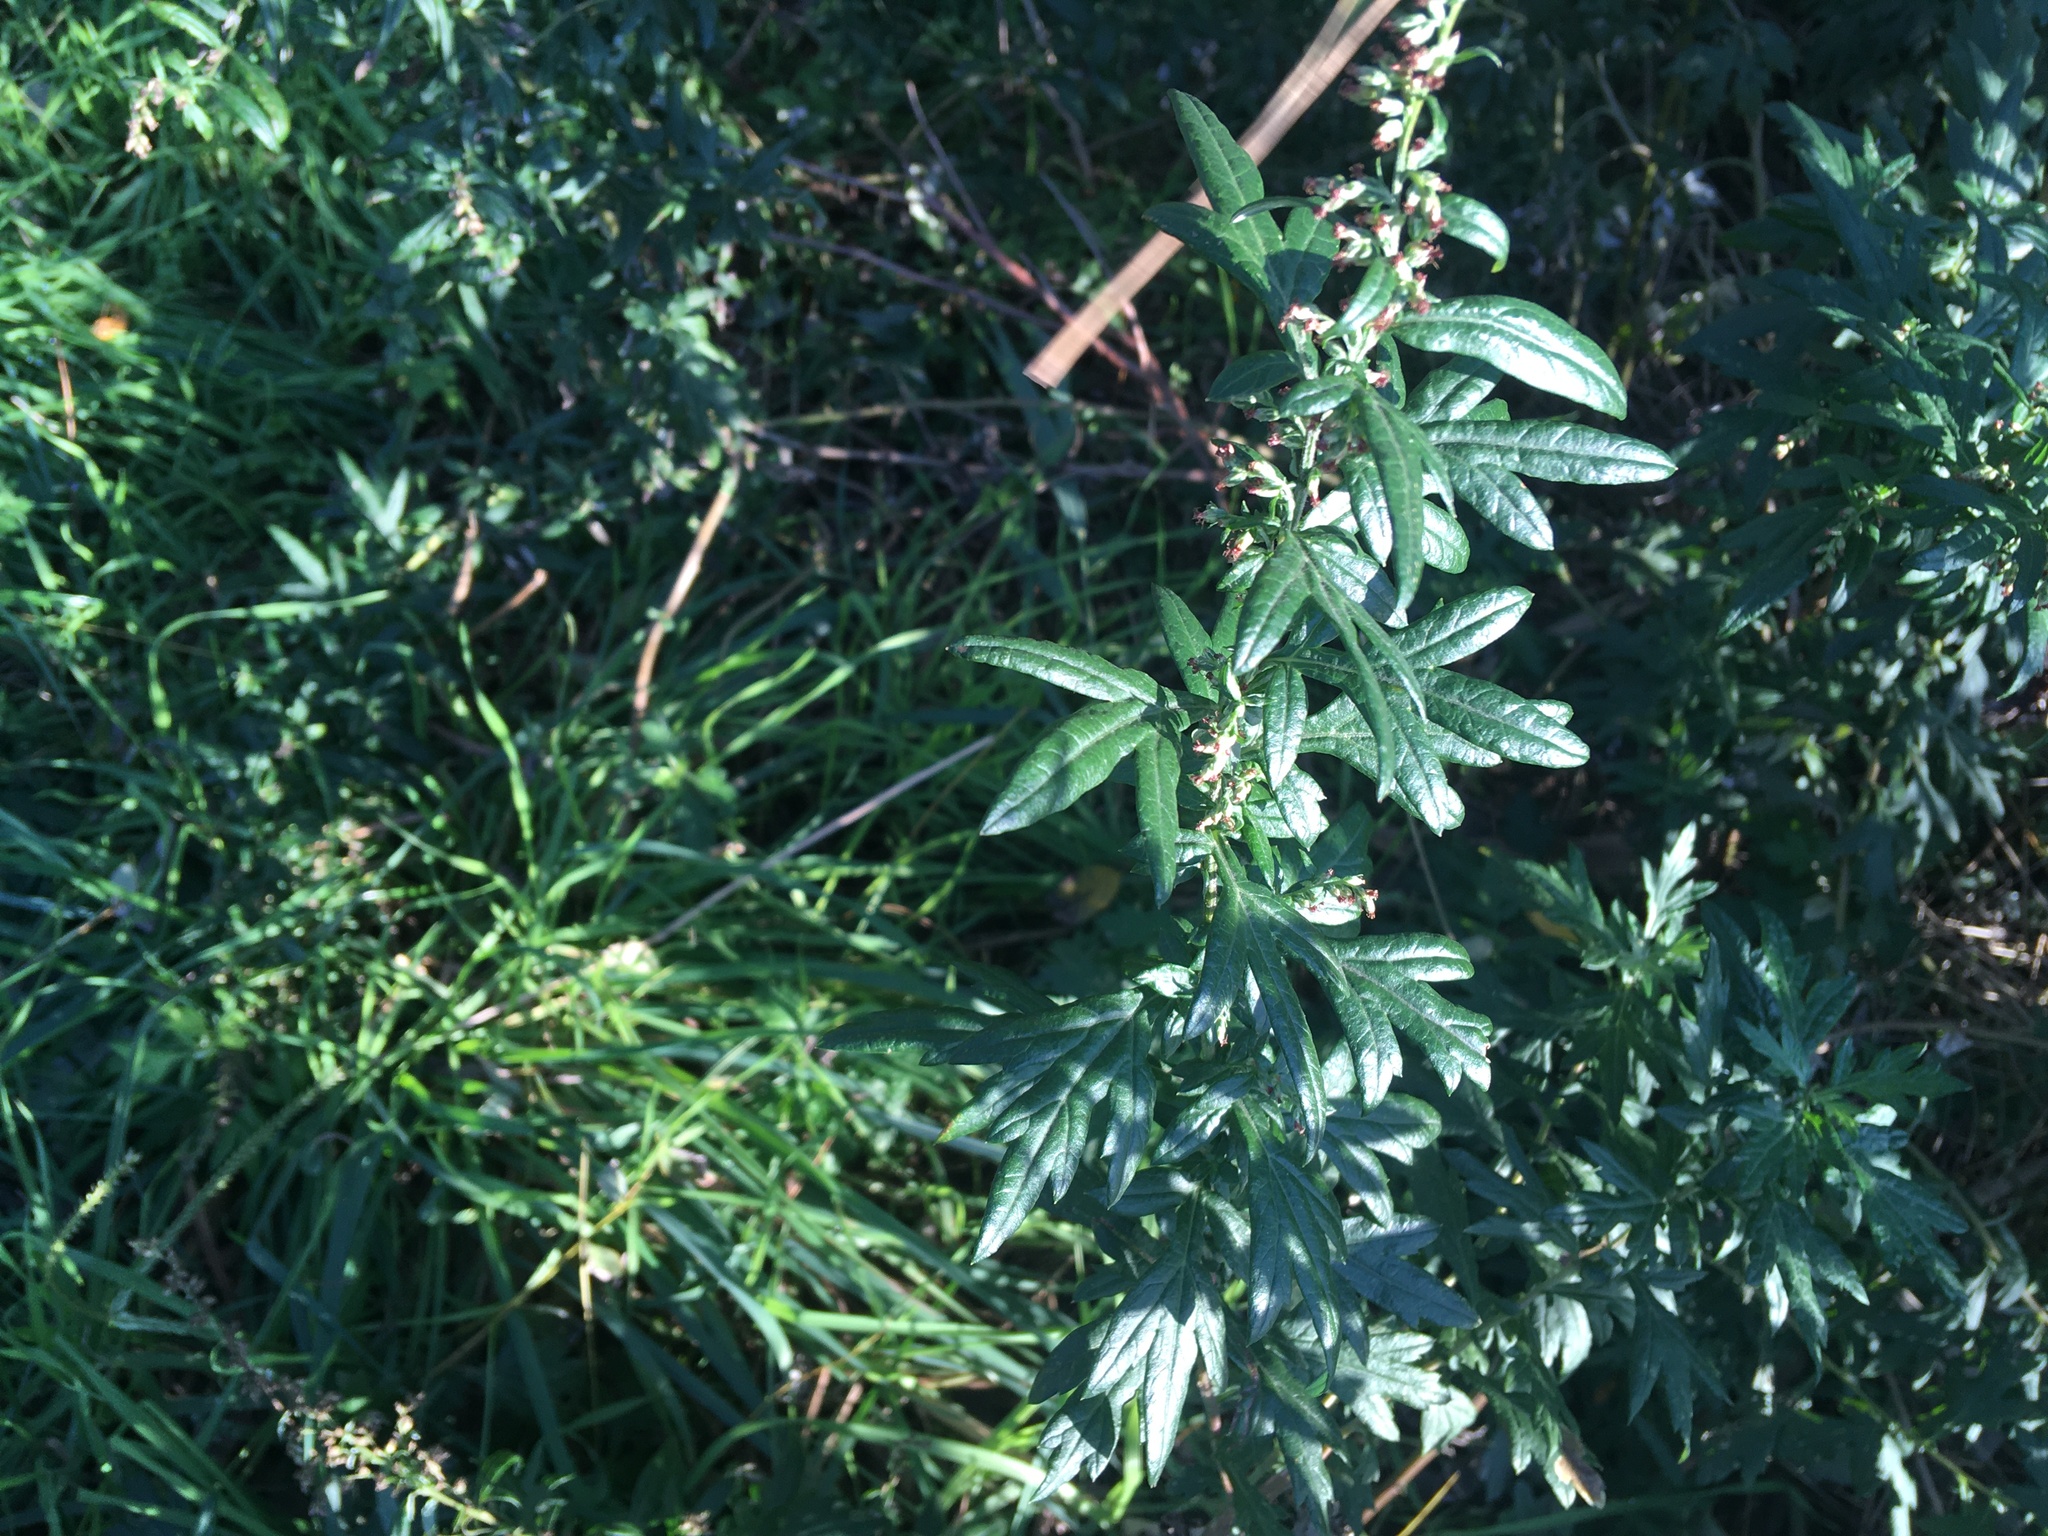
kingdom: Plantae
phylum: Tracheophyta
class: Magnoliopsida
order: Asterales
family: Asteraceae
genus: Artemisia
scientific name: Artemisia vulgaris
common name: Mugwort
